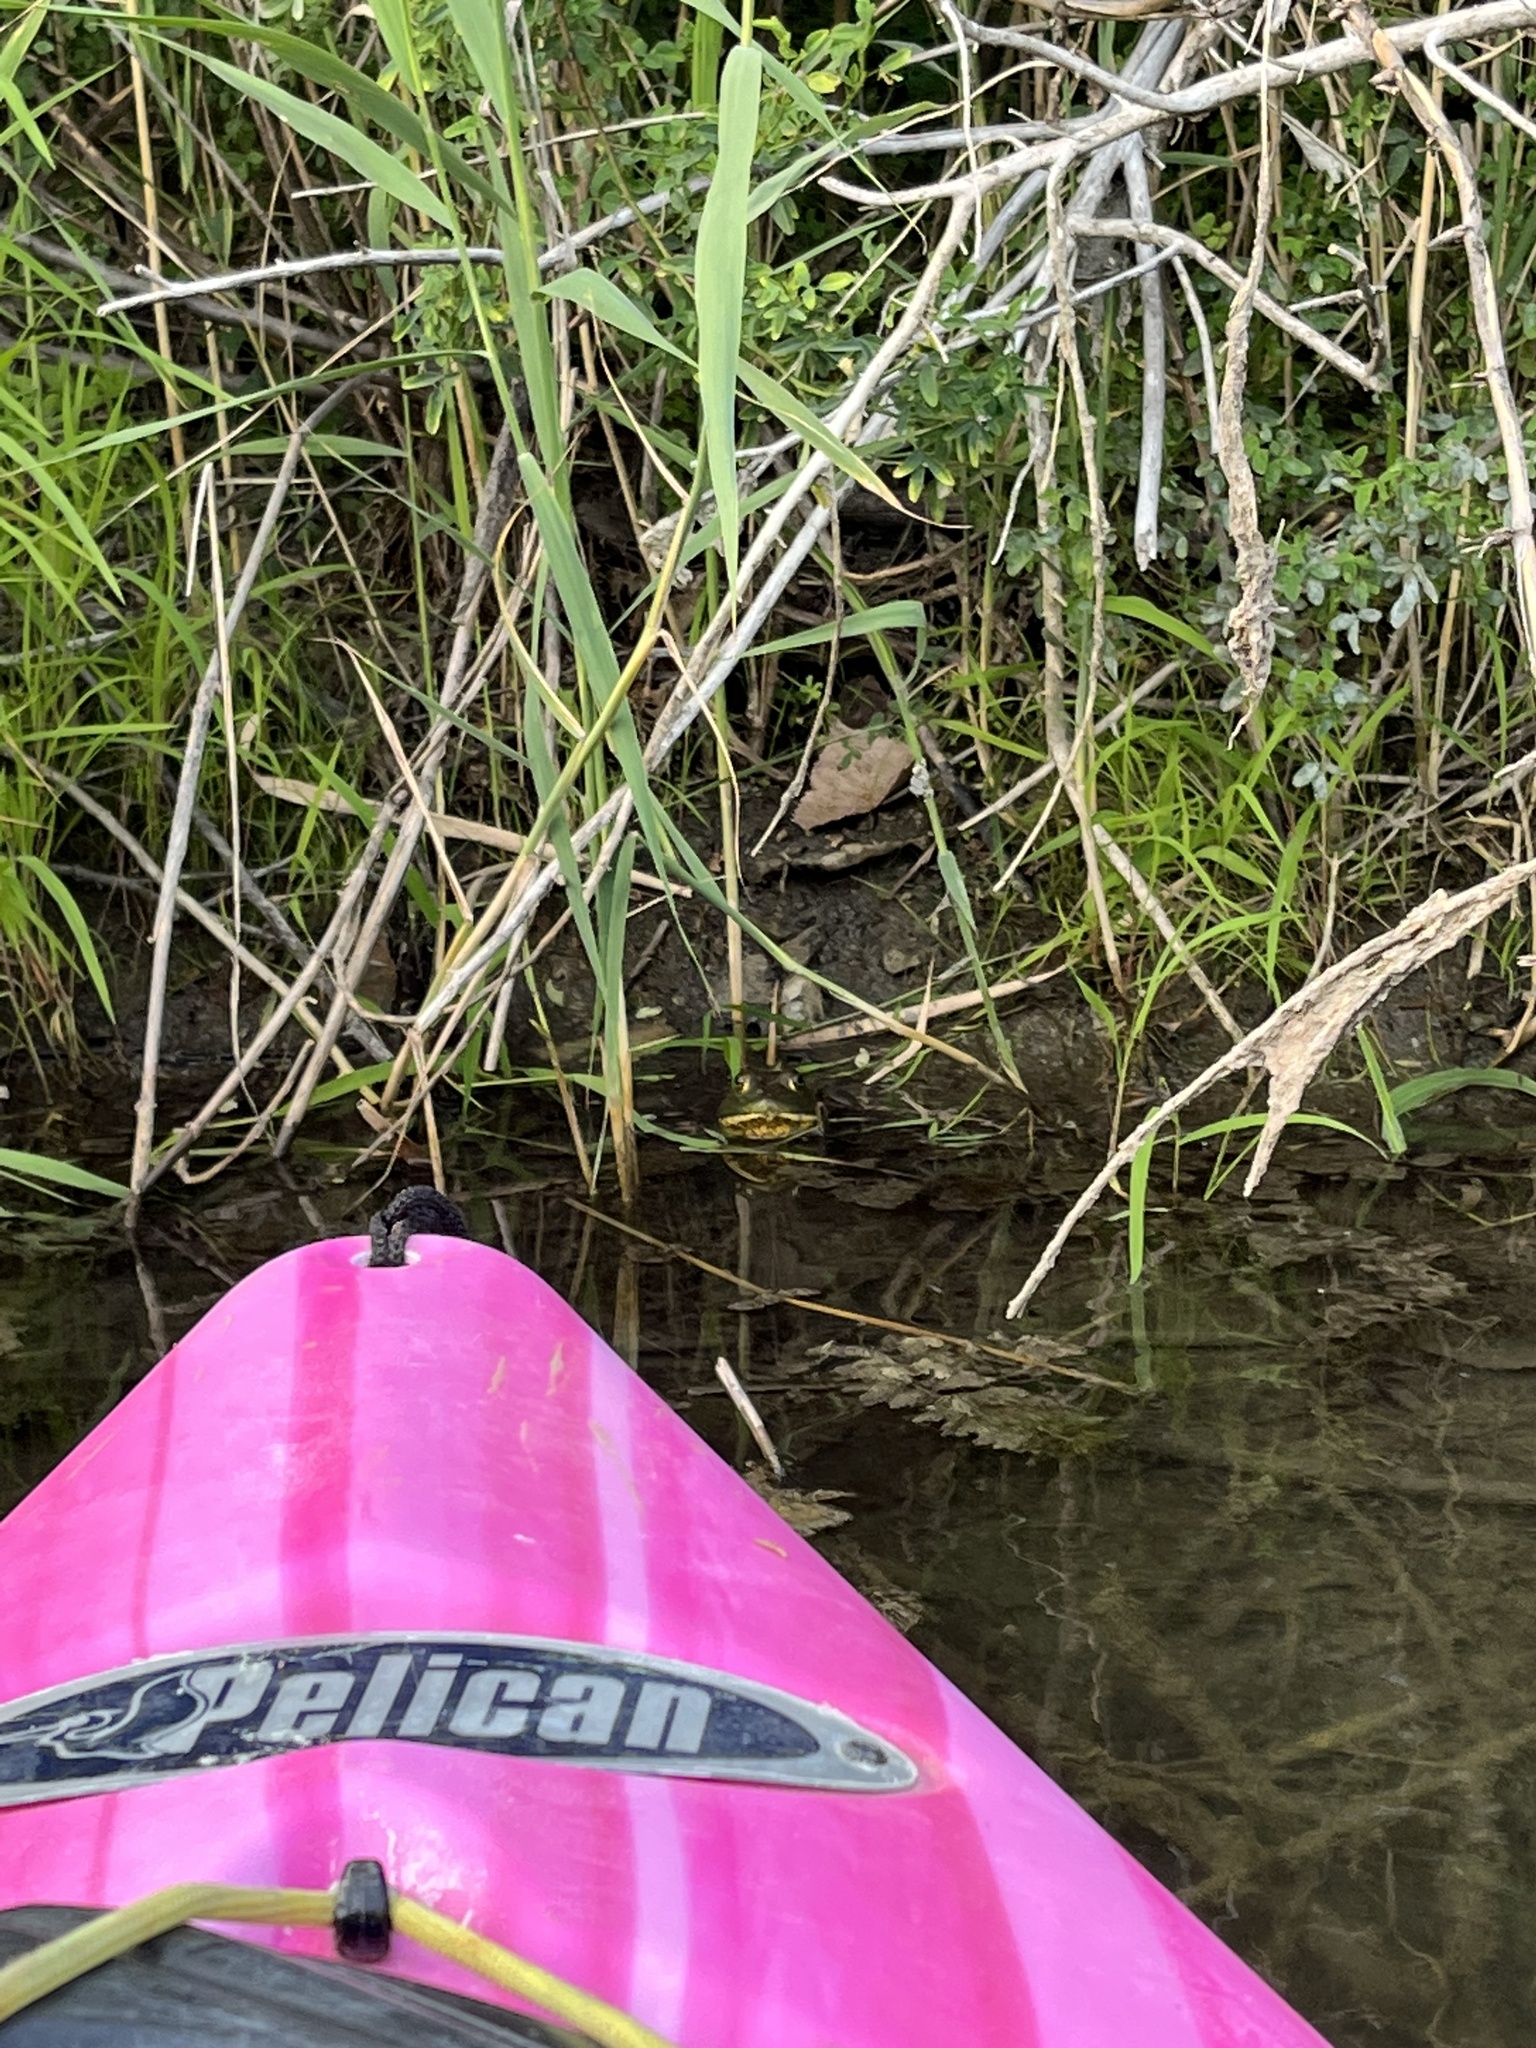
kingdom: Animalia
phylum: Chordata
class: Amphibia
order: Anura
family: Ranidae
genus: Lithobates
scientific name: Lithobates catesbeianus
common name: American bullfrog
